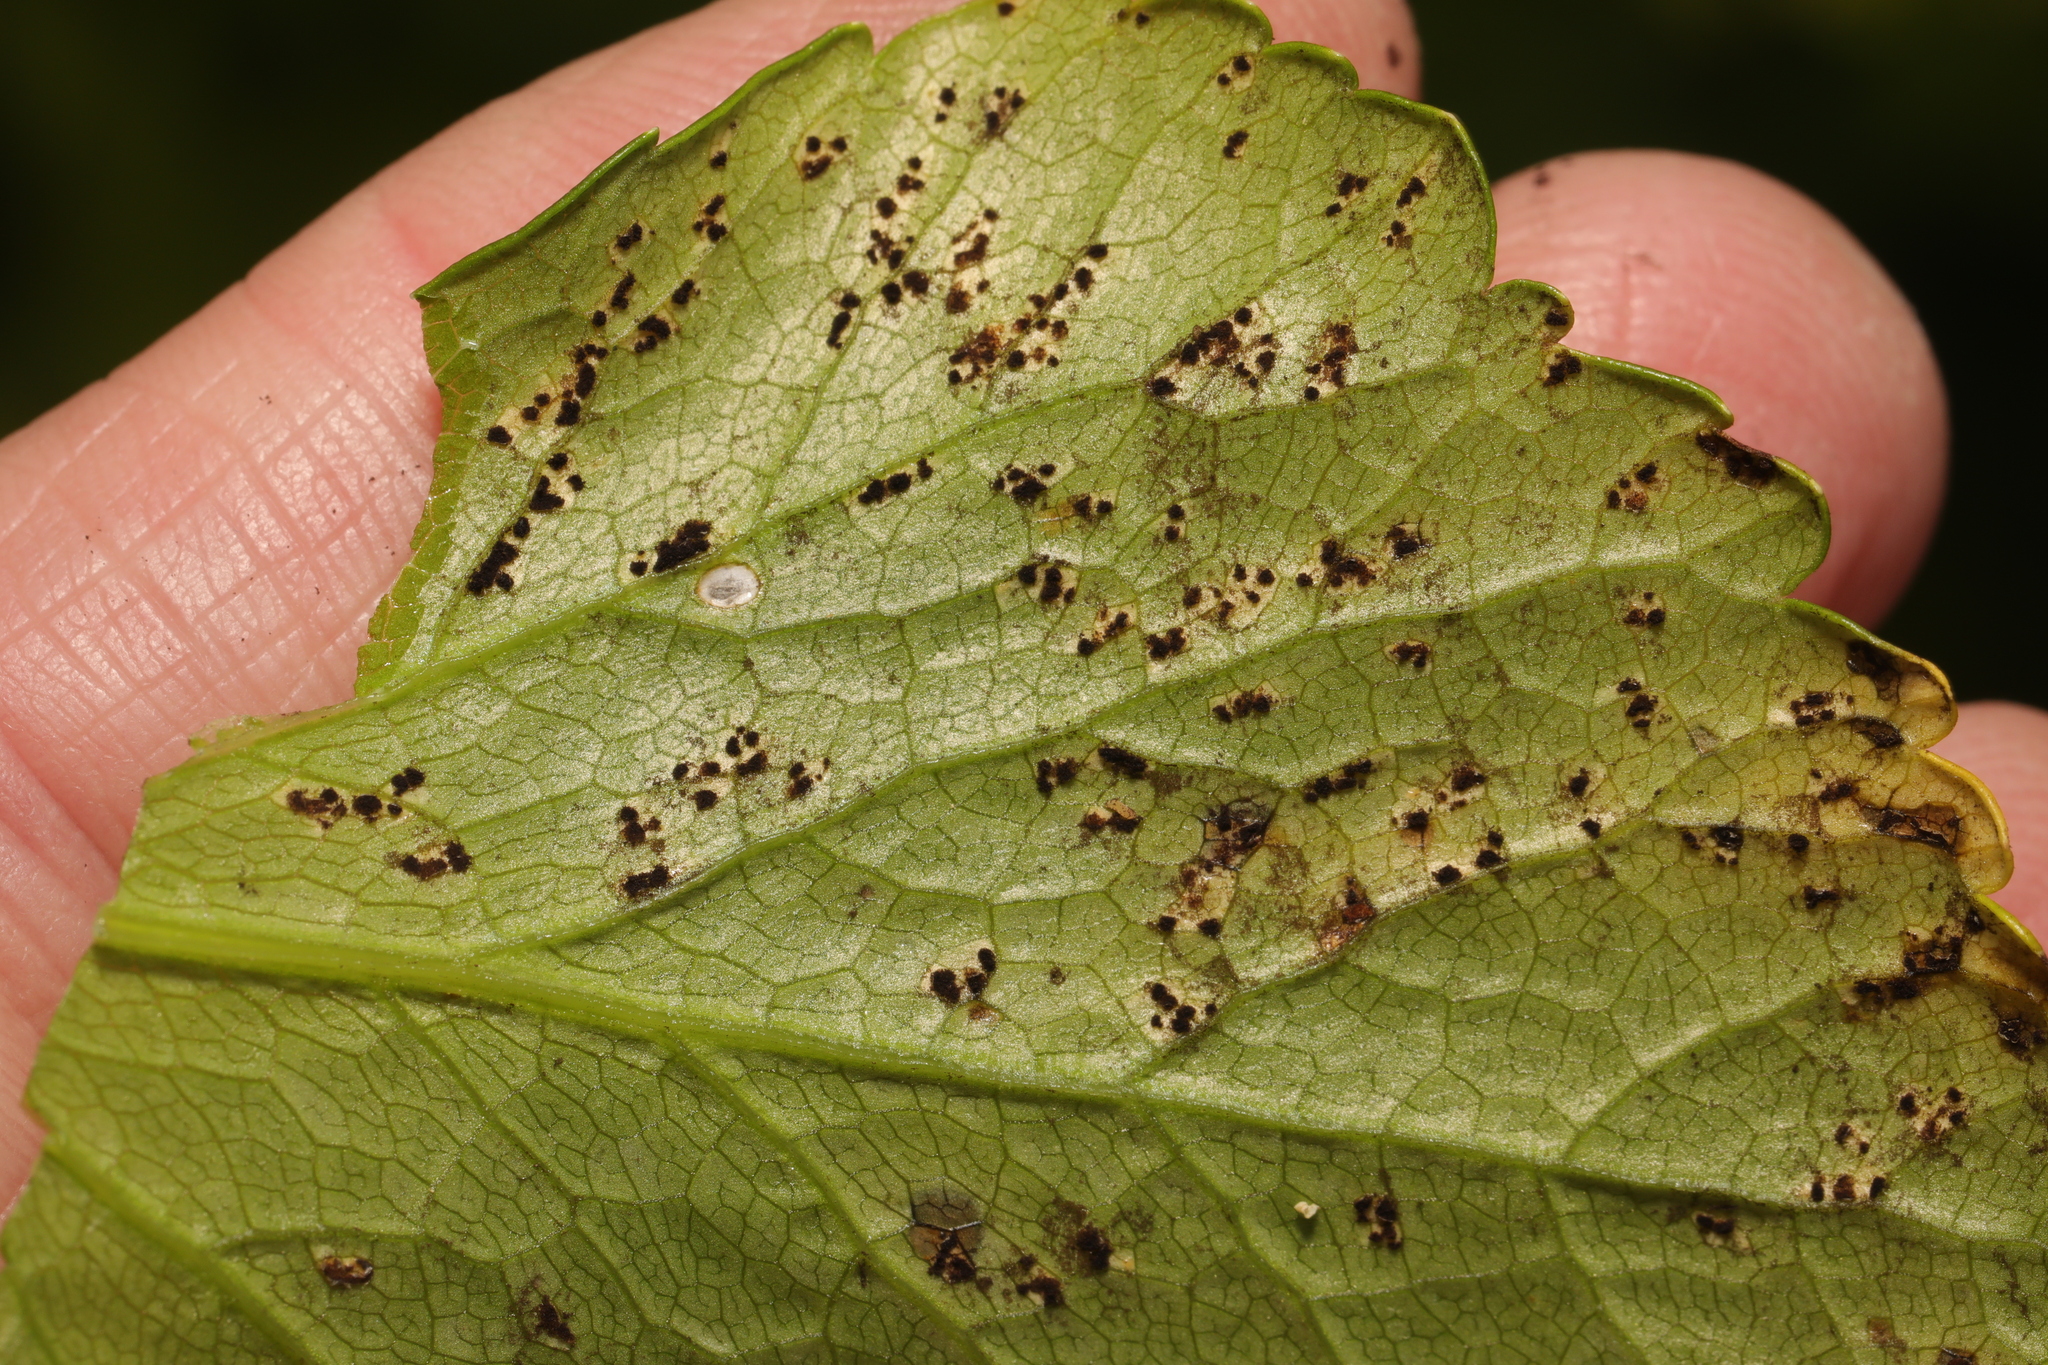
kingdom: Fungi
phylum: Basidiomycota
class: Pucciniomycetes
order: Pucciniales
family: Pucciniaceae
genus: Puccinia
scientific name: Puccinia smyrnii
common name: Alexanders rust
